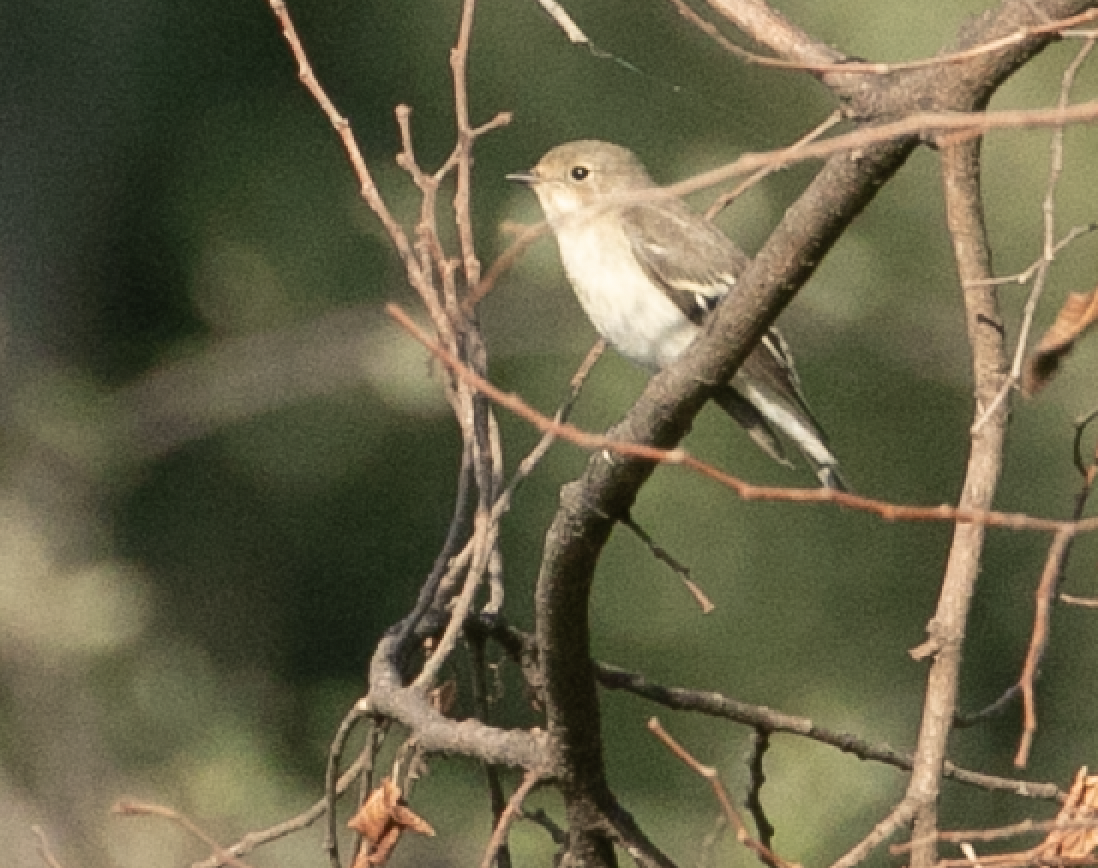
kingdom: Animalia
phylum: Chordata
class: Aves
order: Passeriformes
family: Muscicapidae
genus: Ficedula
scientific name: Ficedula hypoleuca
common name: European pied flycatcher
